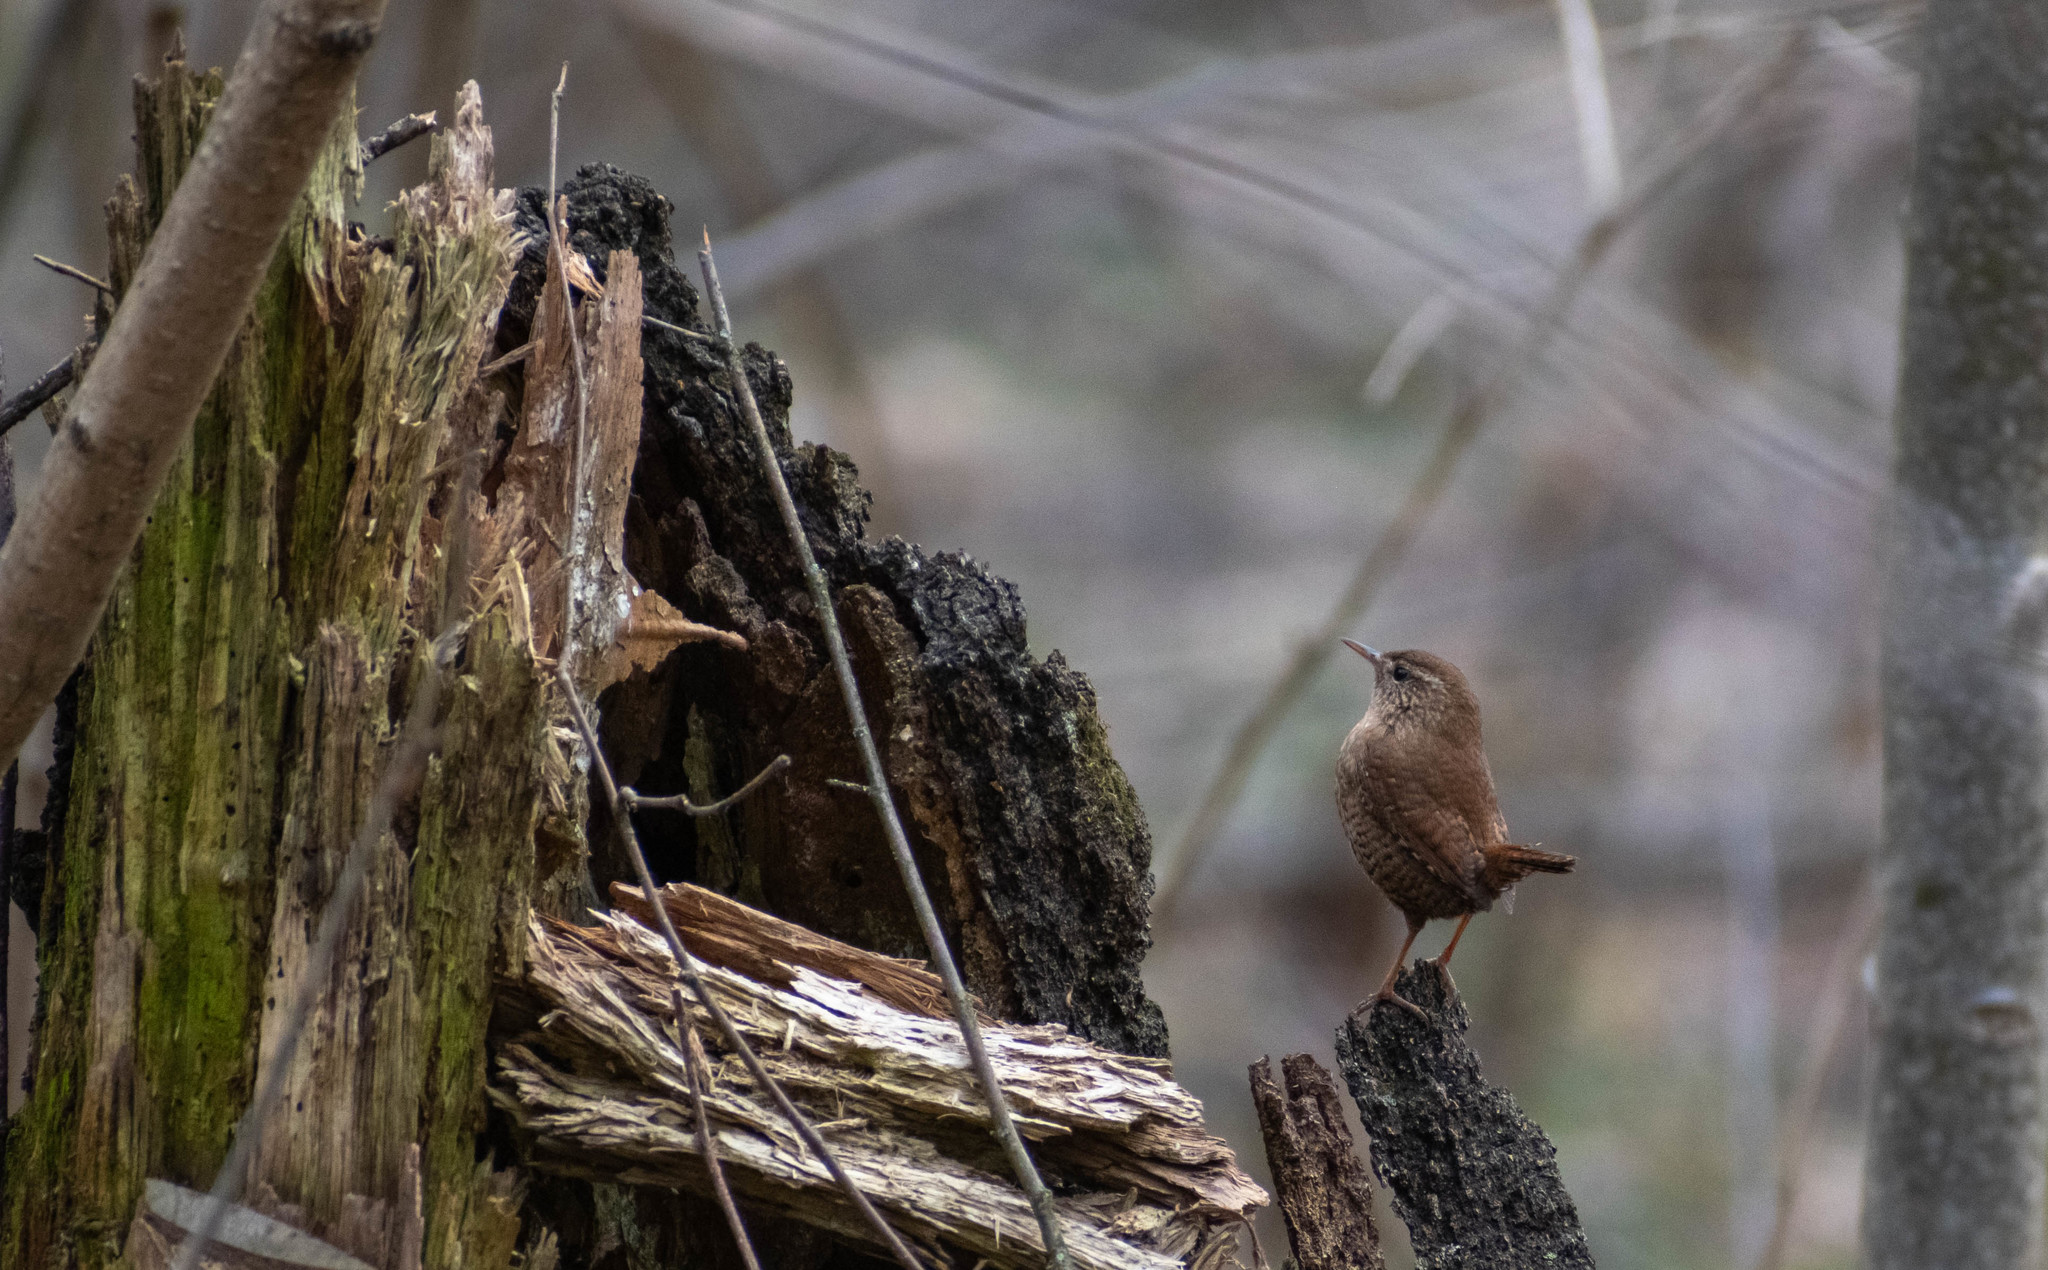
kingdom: Animalia
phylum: Chordata
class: Aves
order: Passeriformes
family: Troglodytidae
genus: Troglodytes
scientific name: Troglodytes troglodytes
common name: Eurasian wren
